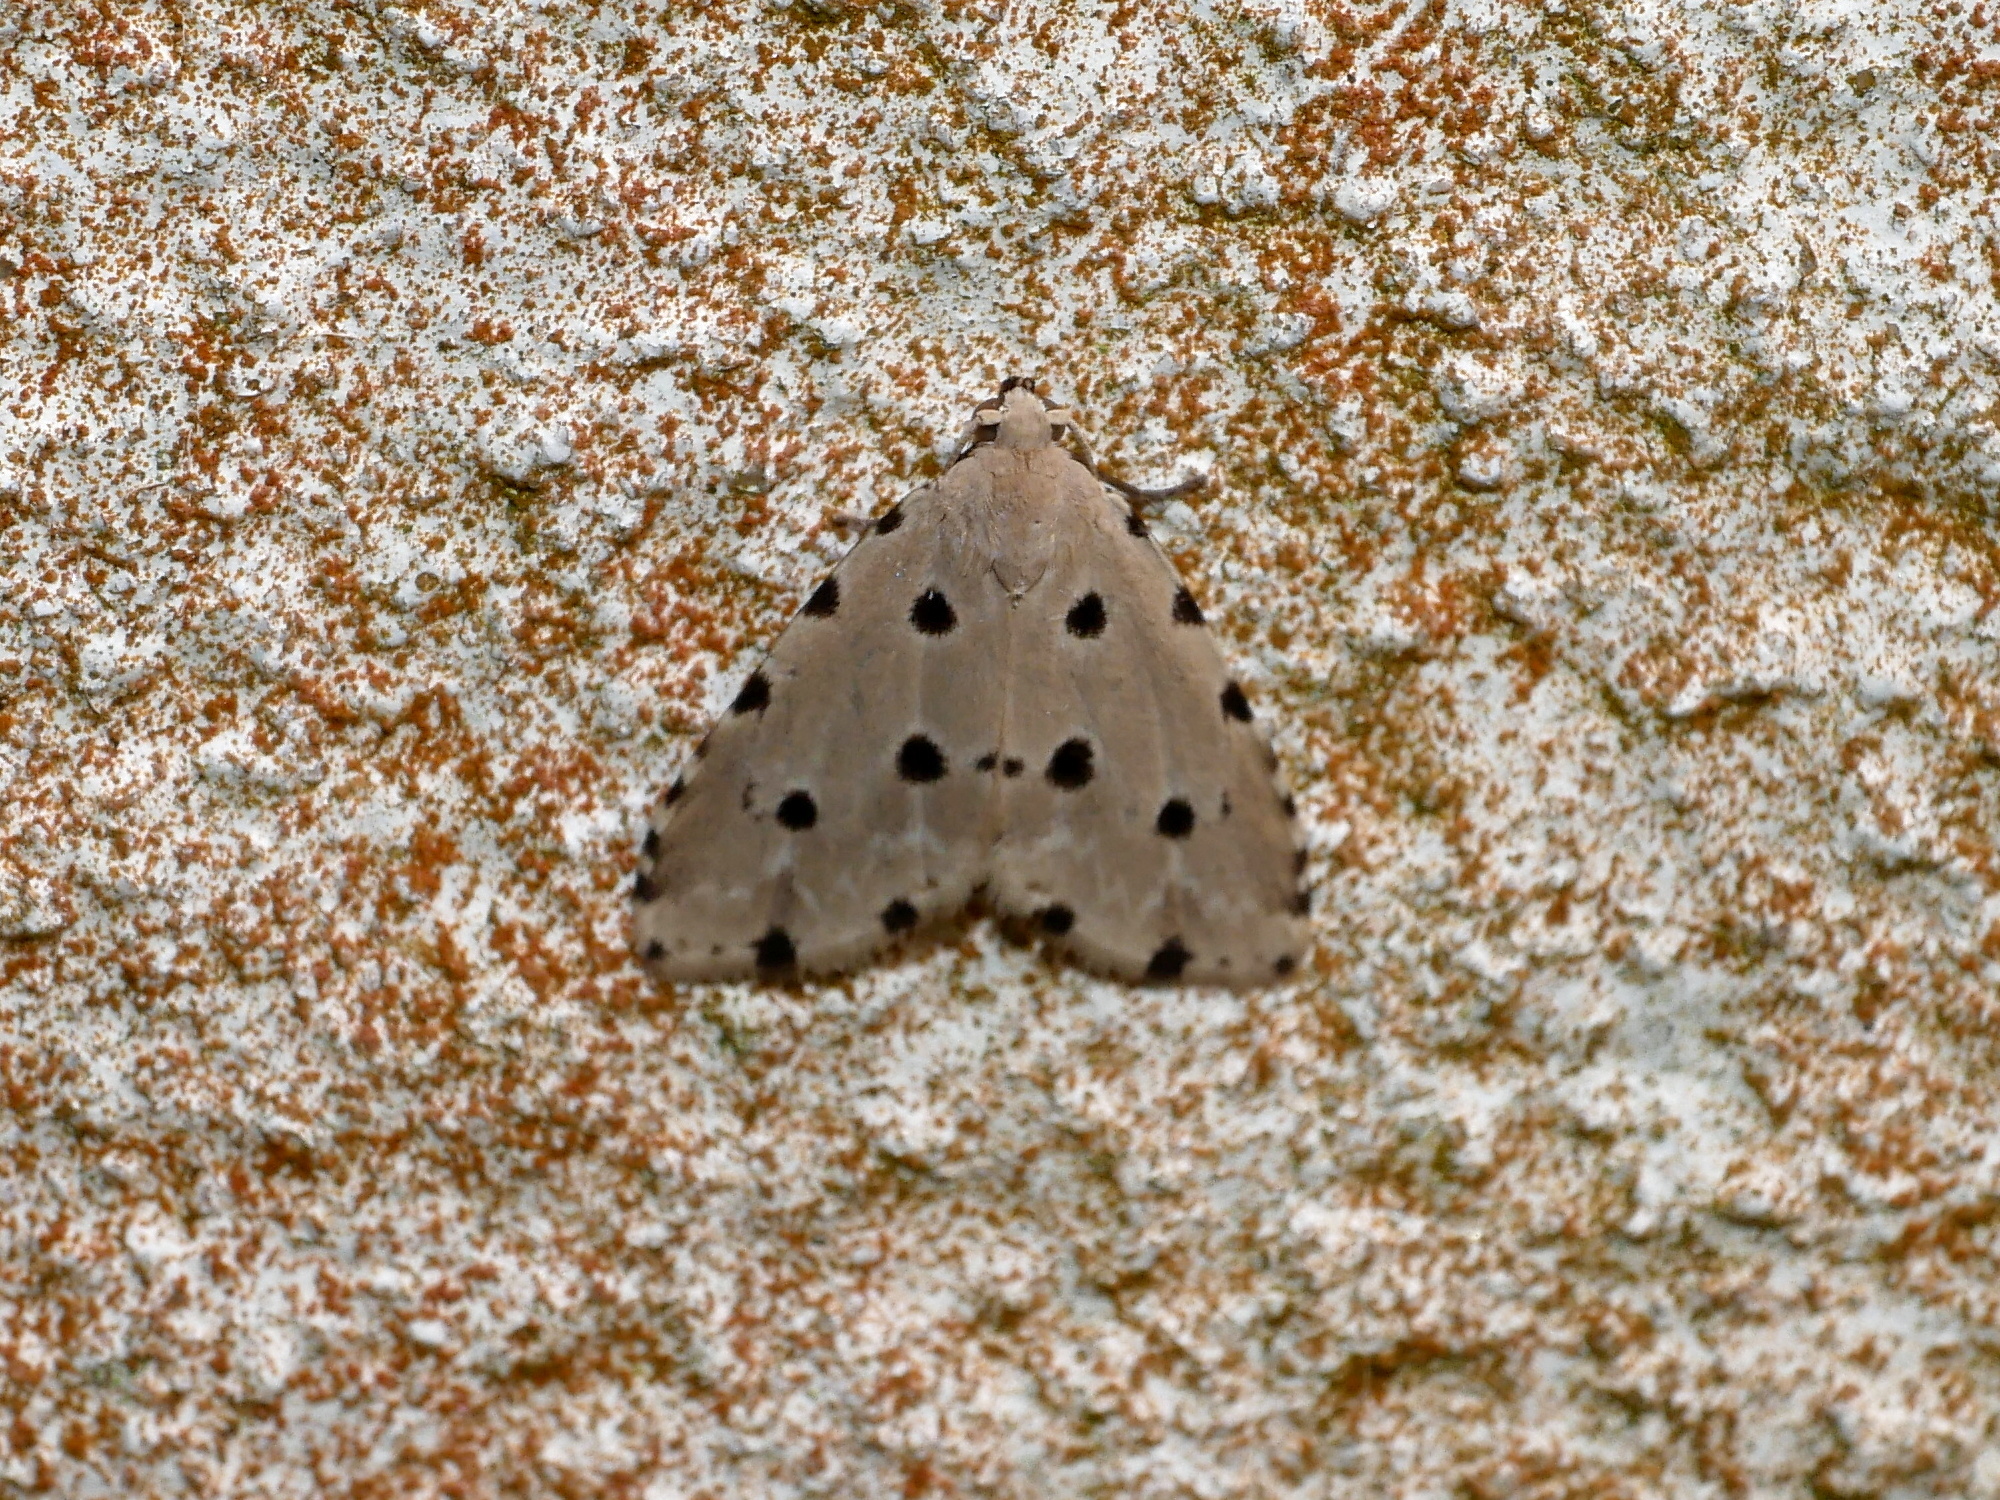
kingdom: Animalia
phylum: Arthropoda
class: Insecta
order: Lepidoptera
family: Noctuidae
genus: Metaemene
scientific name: Metaemene atrigutta
